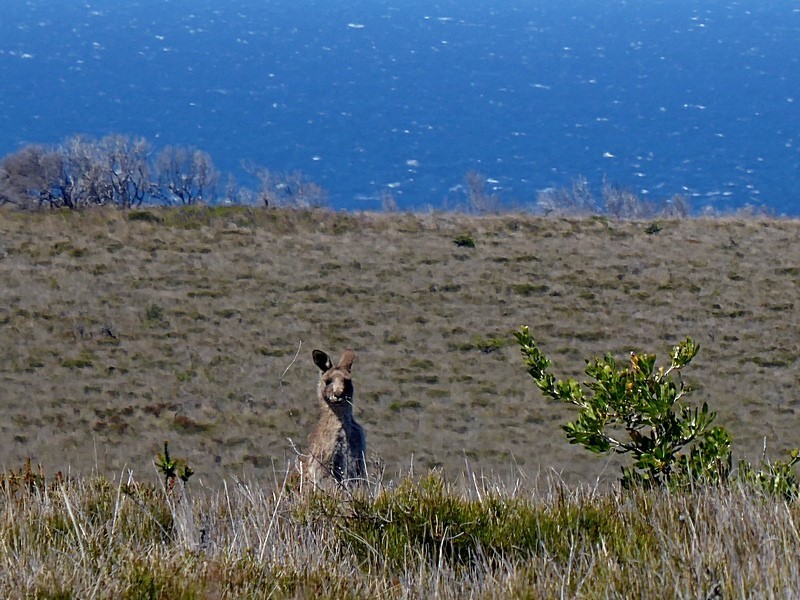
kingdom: Animalia
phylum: Chordata
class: Mammalia
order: Diprotodontia
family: Macropodidae
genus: Macropus
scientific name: Macropus giganteus
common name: Eastern grey kangaroo
